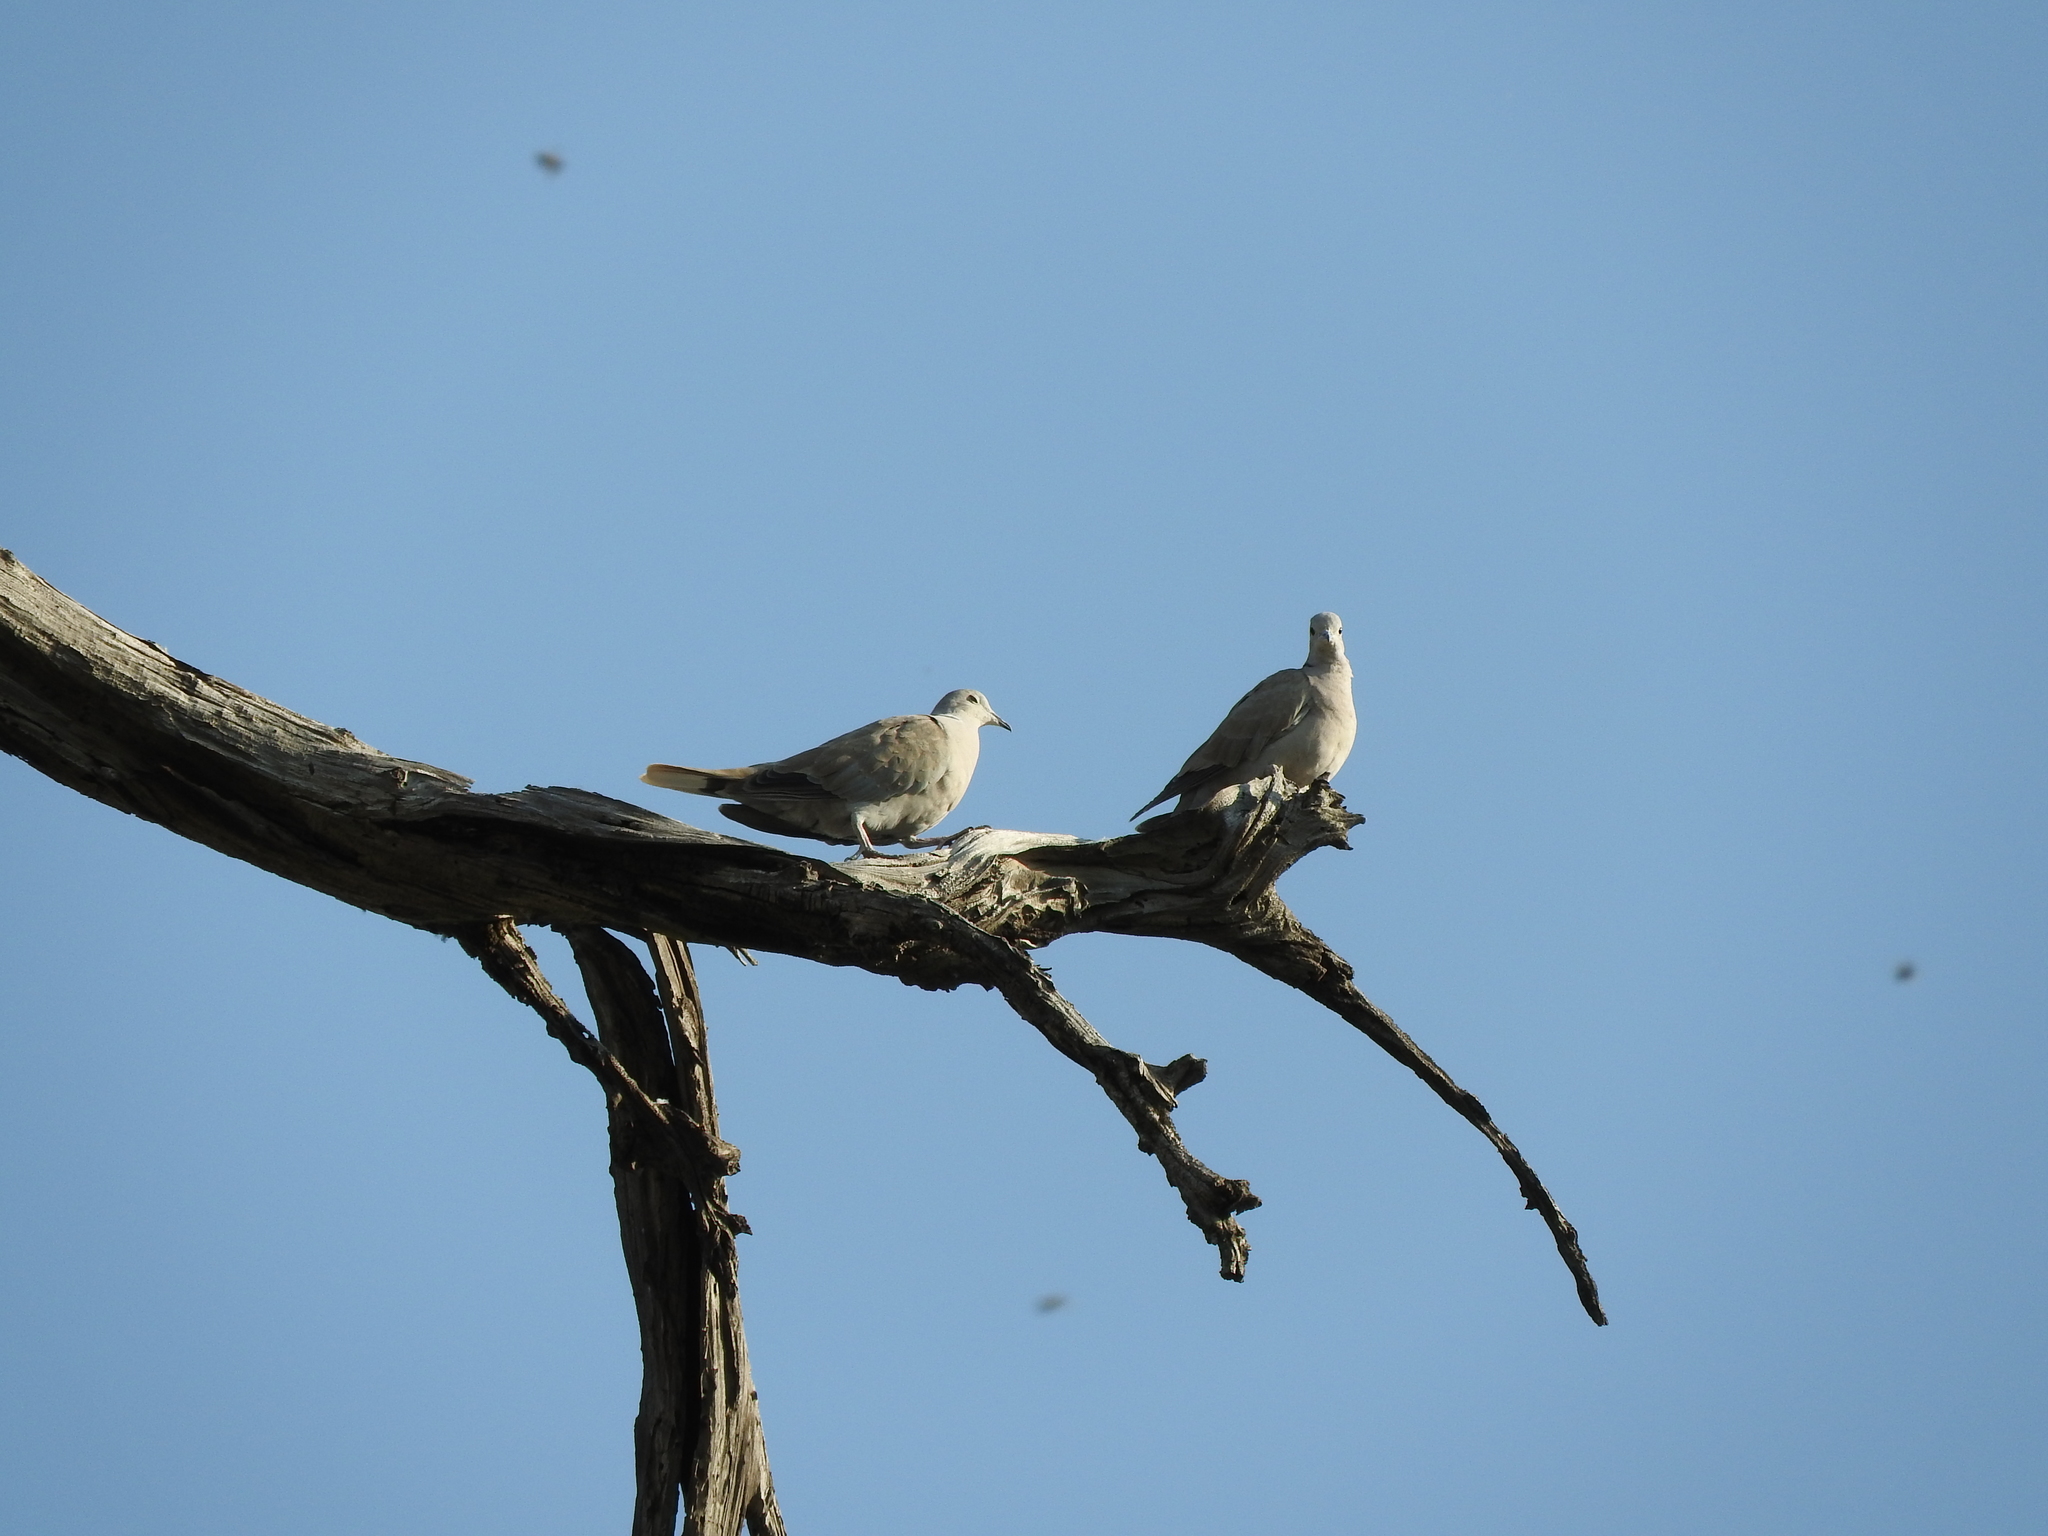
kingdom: Animalia
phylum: Chordata
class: Aves
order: Columbiformes
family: Columbidae
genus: Streptopelia
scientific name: Streptopelia decaocto
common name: Eurasian collared dove
